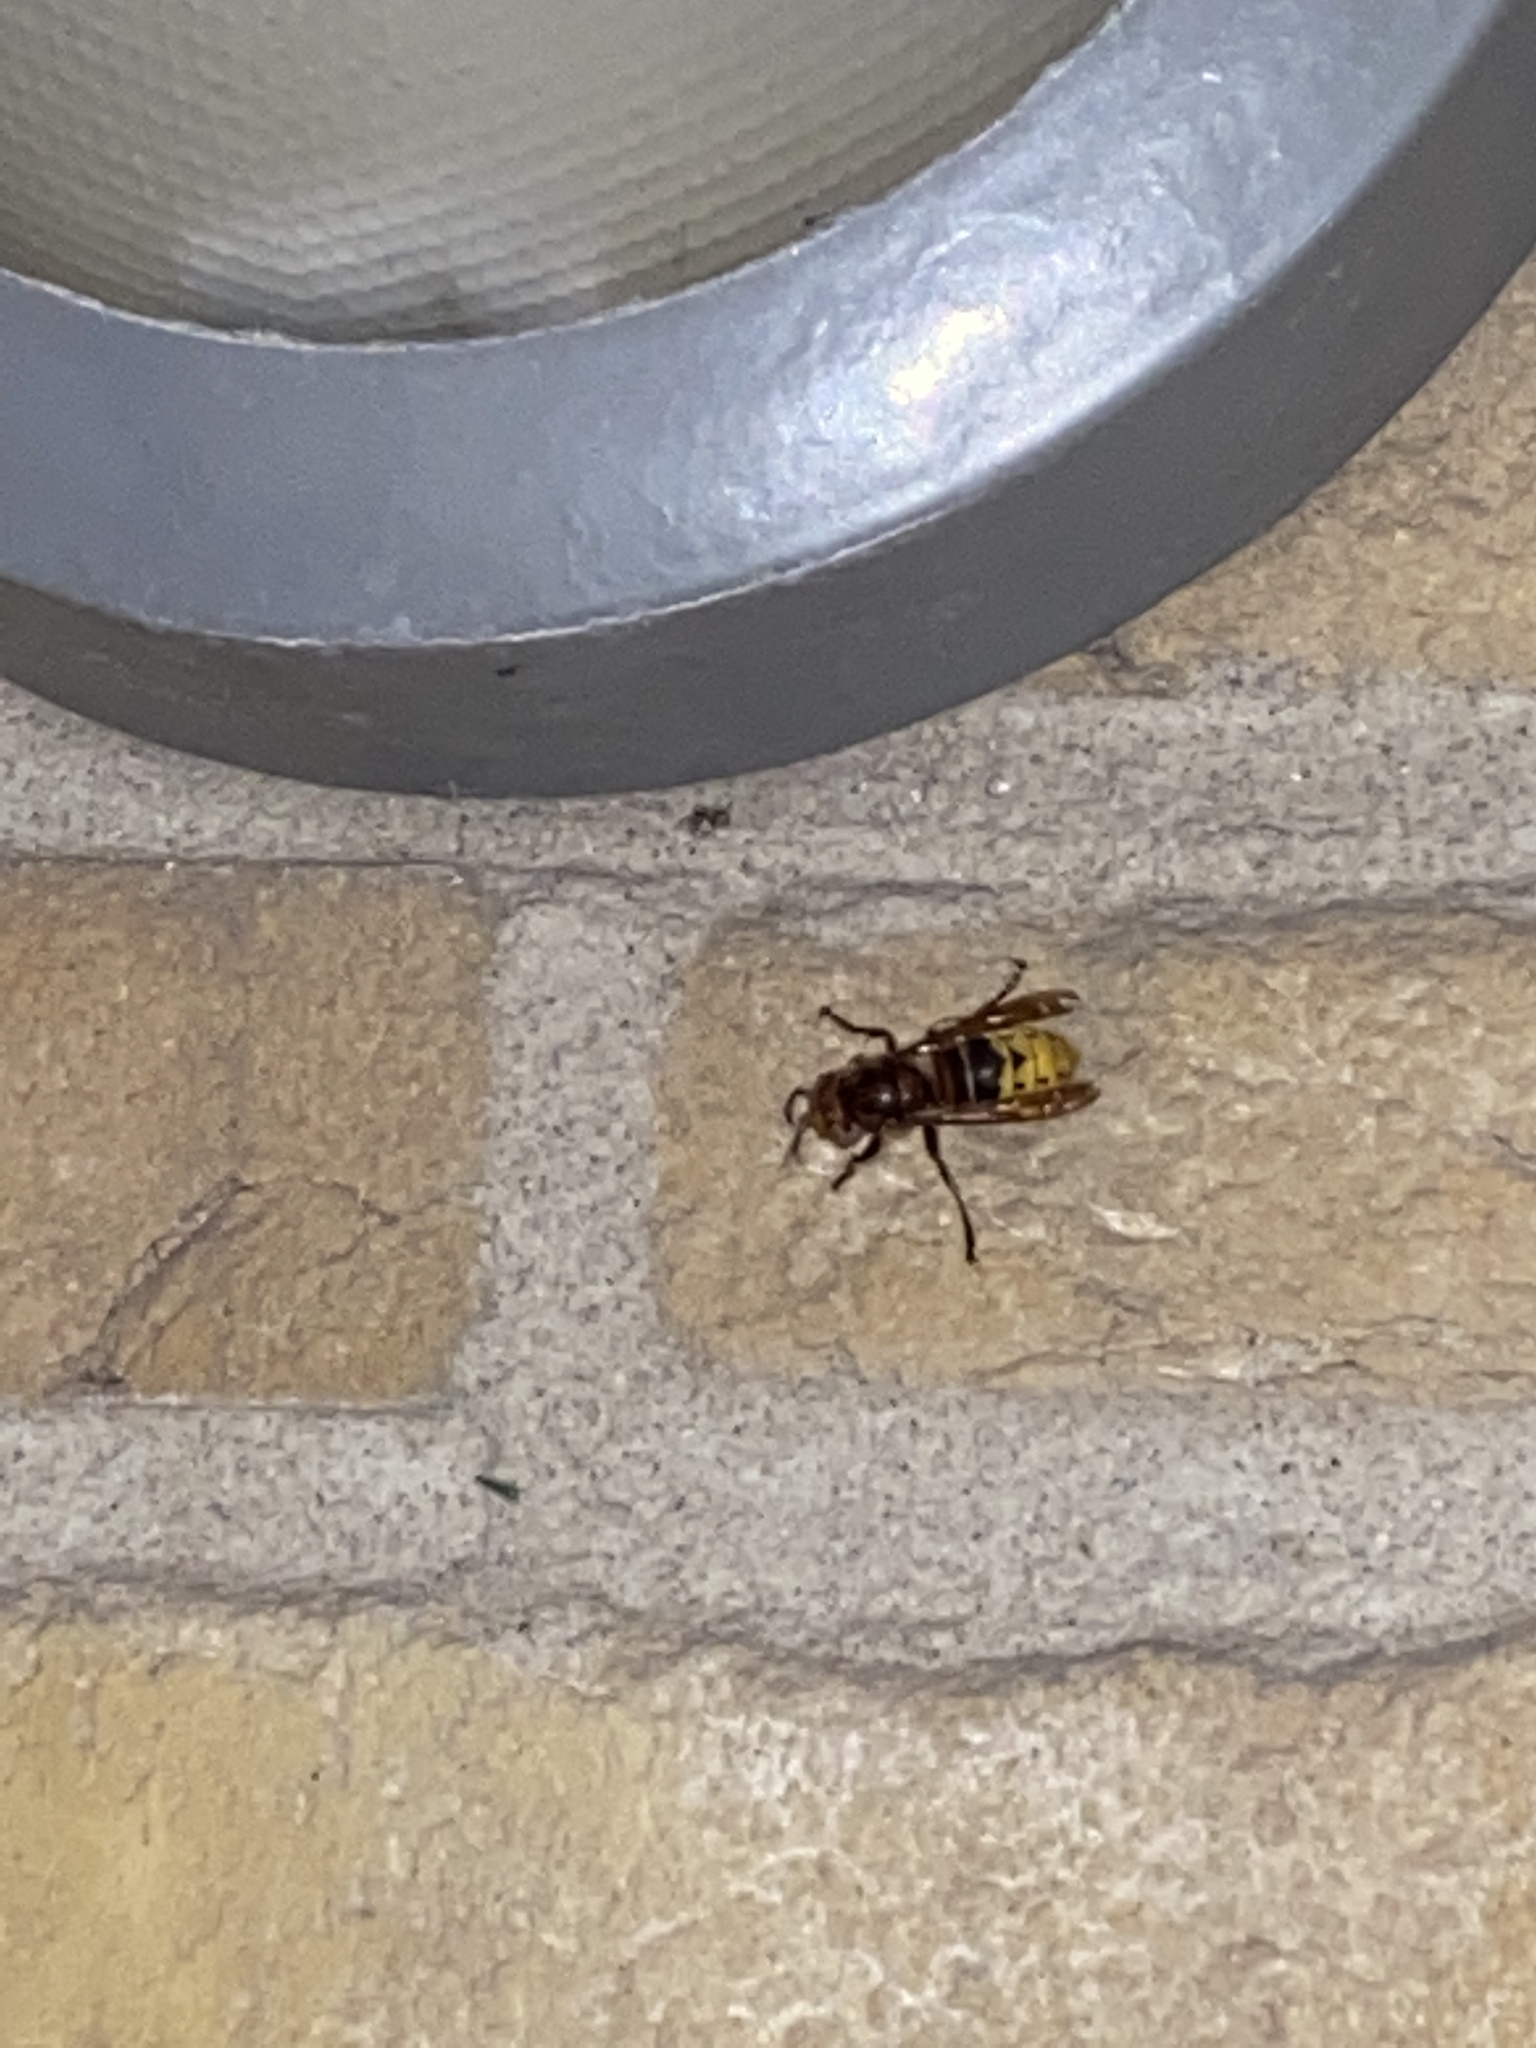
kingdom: Animalia
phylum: Arthropoda
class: Insecta
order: Hymenoptera
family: Vespidae
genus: Vespa
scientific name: Vespa crabro
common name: Hornet
